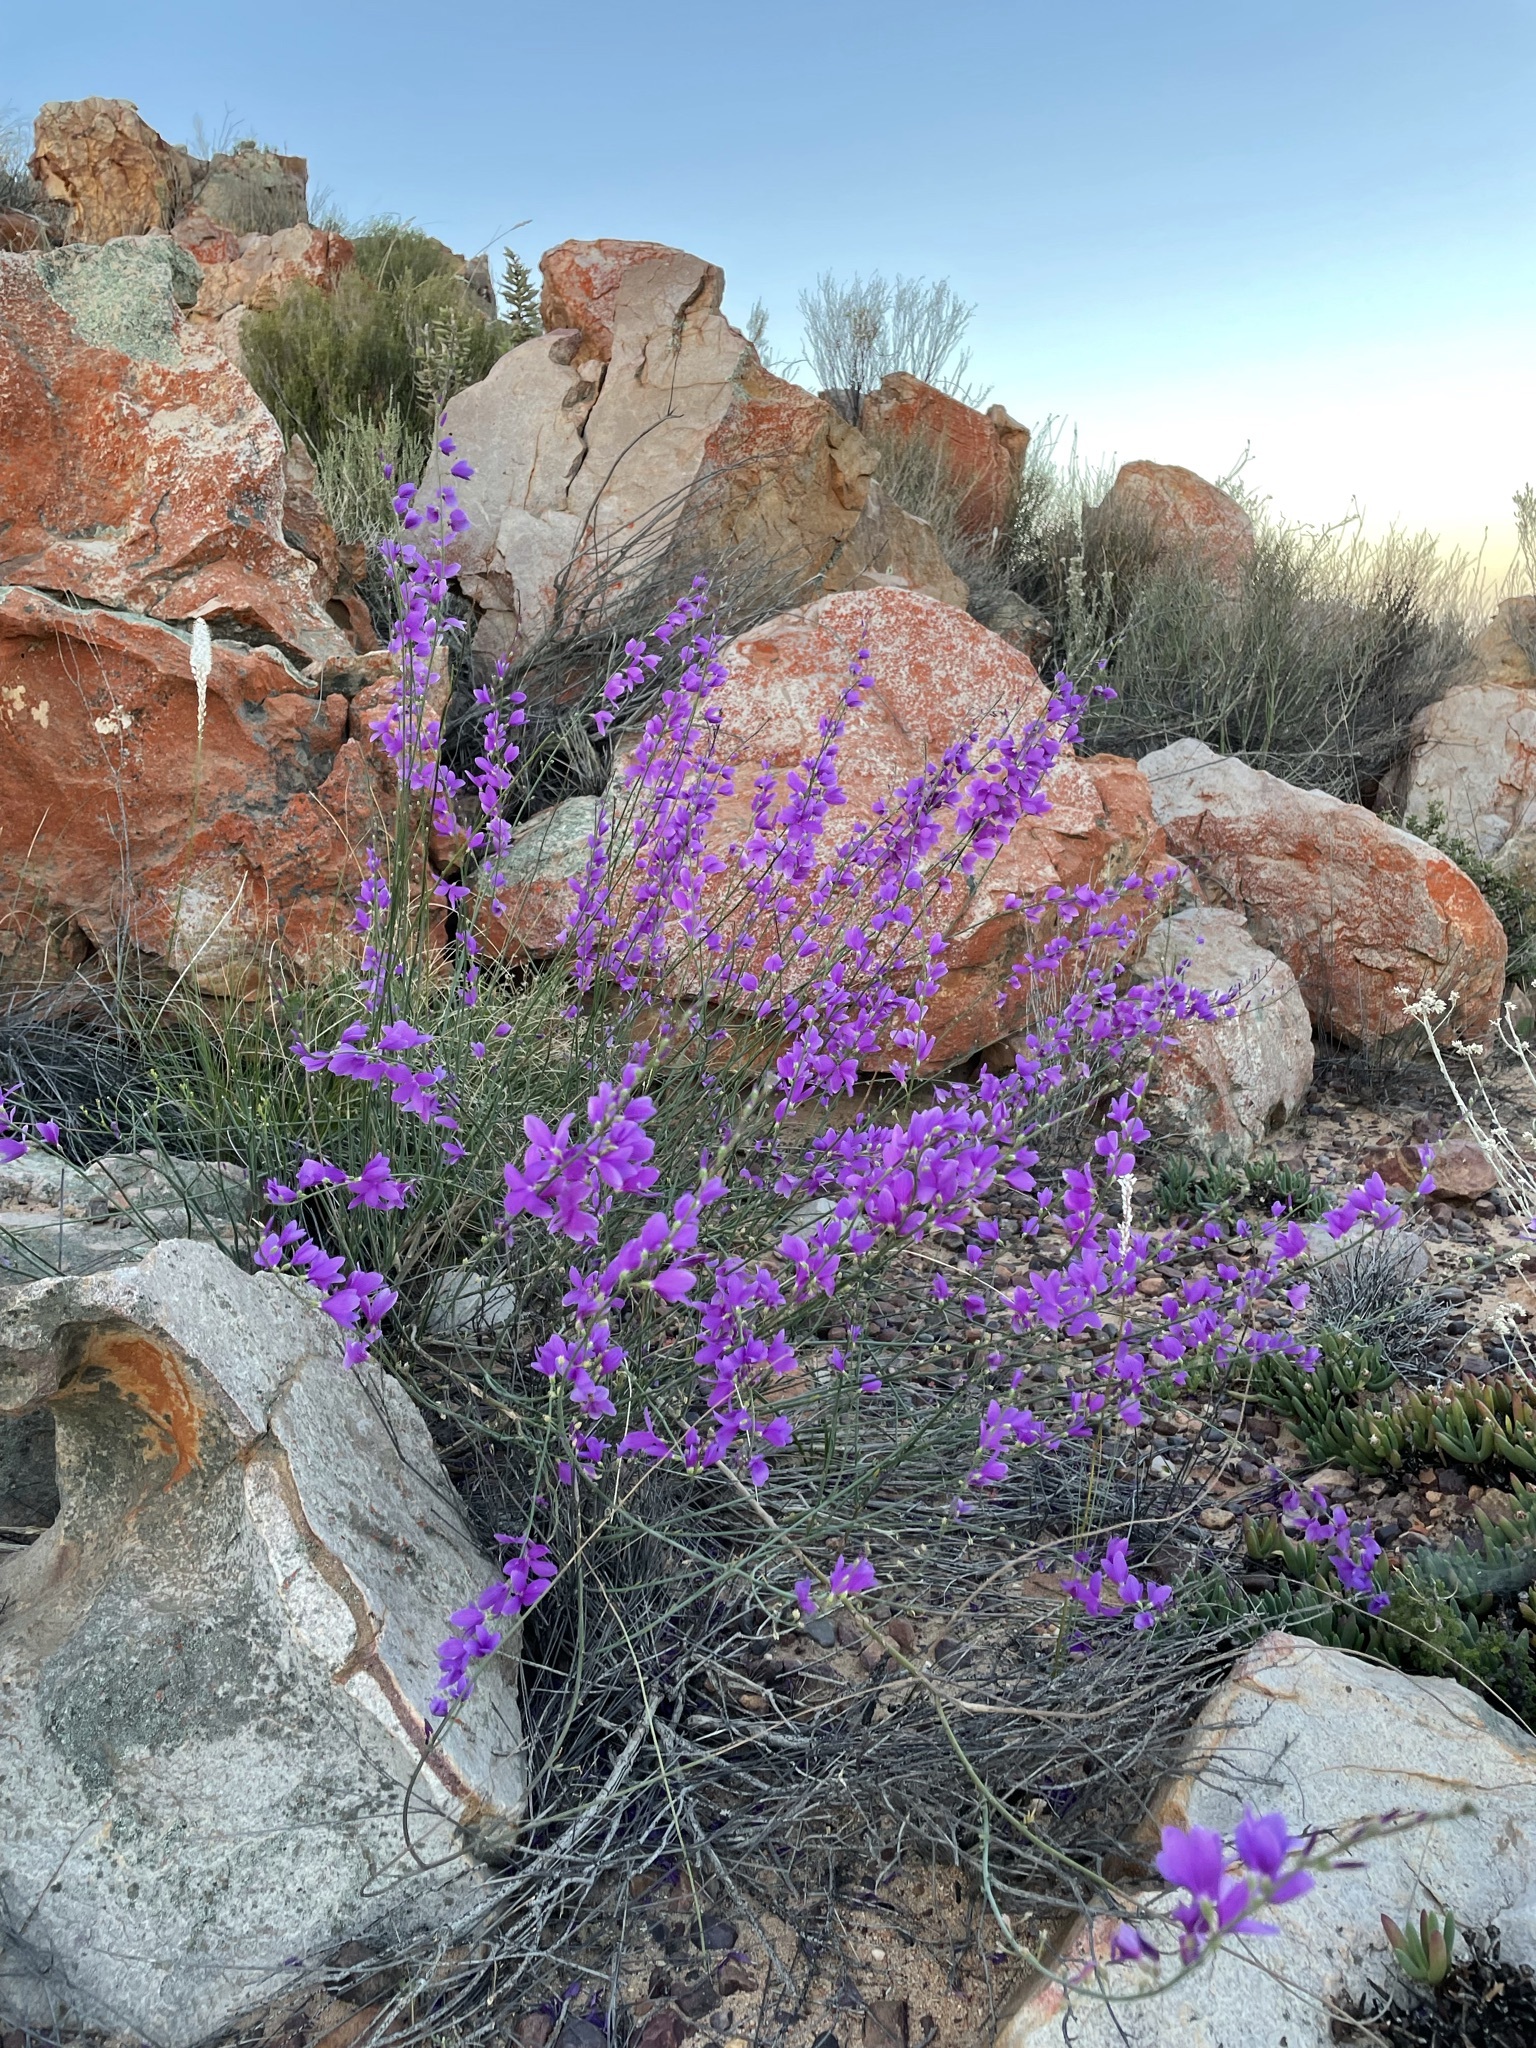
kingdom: Plantae
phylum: Tracheophyta
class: Magnoliopsida
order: Brassicales
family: Brassicaceae
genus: Heliophila
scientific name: Heliophila juncea
